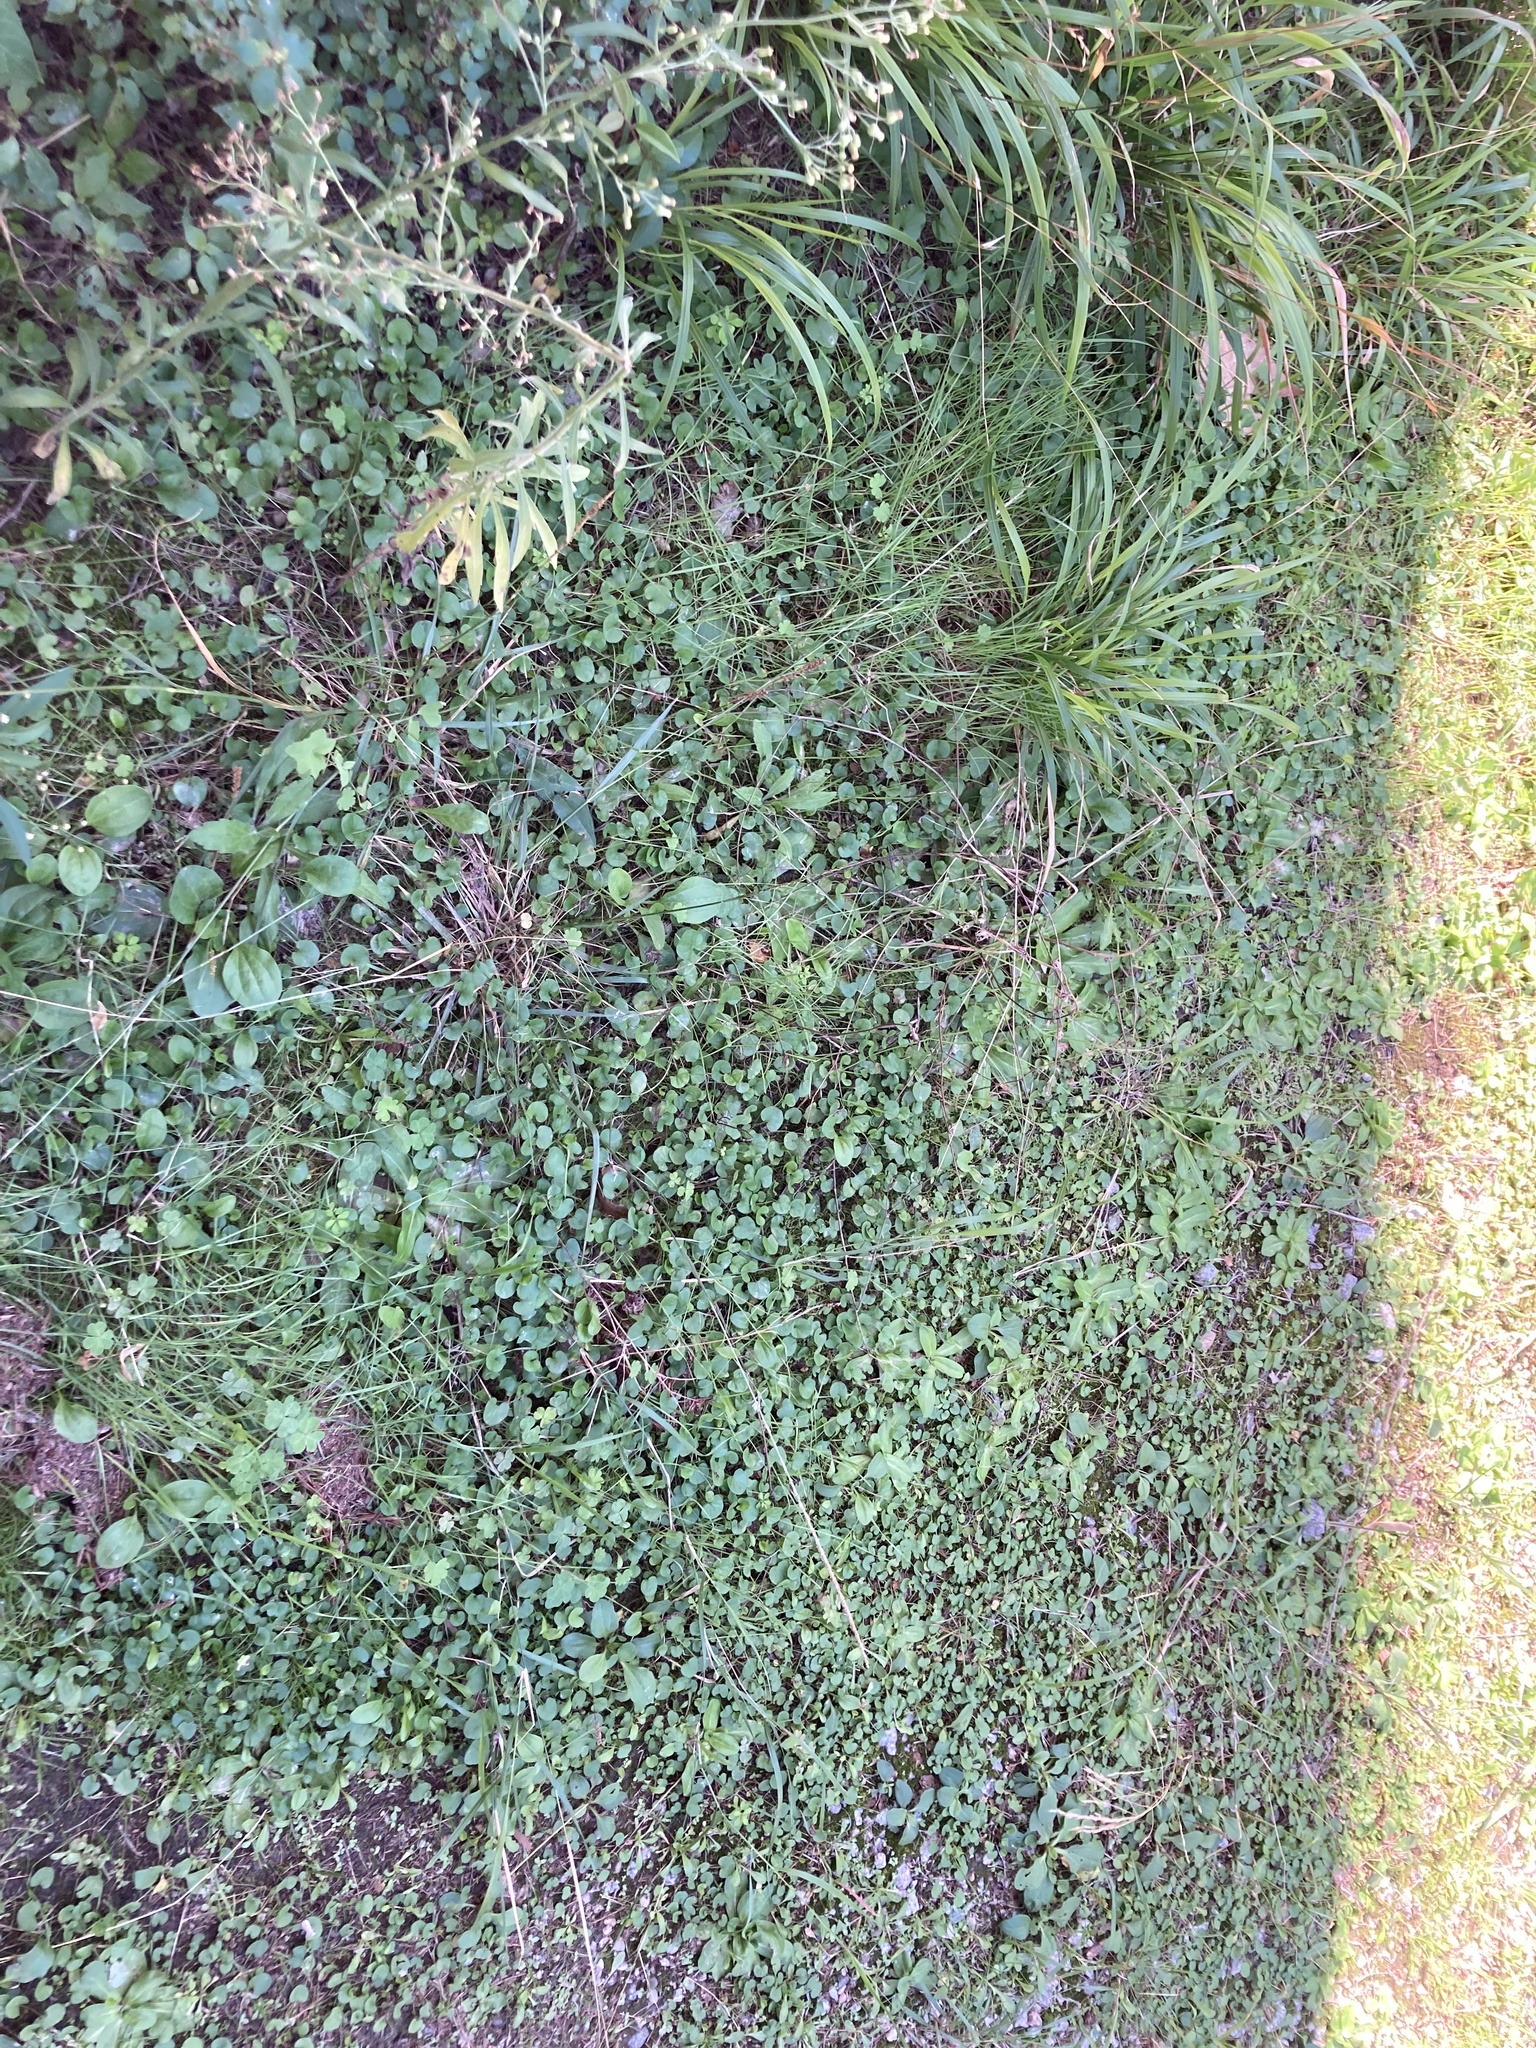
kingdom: Plantae
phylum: Tracheophyta
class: Liliopsida
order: Poales
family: Poaceae
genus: Sporobolus
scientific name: Sporobolus indicus
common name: Smut grass
